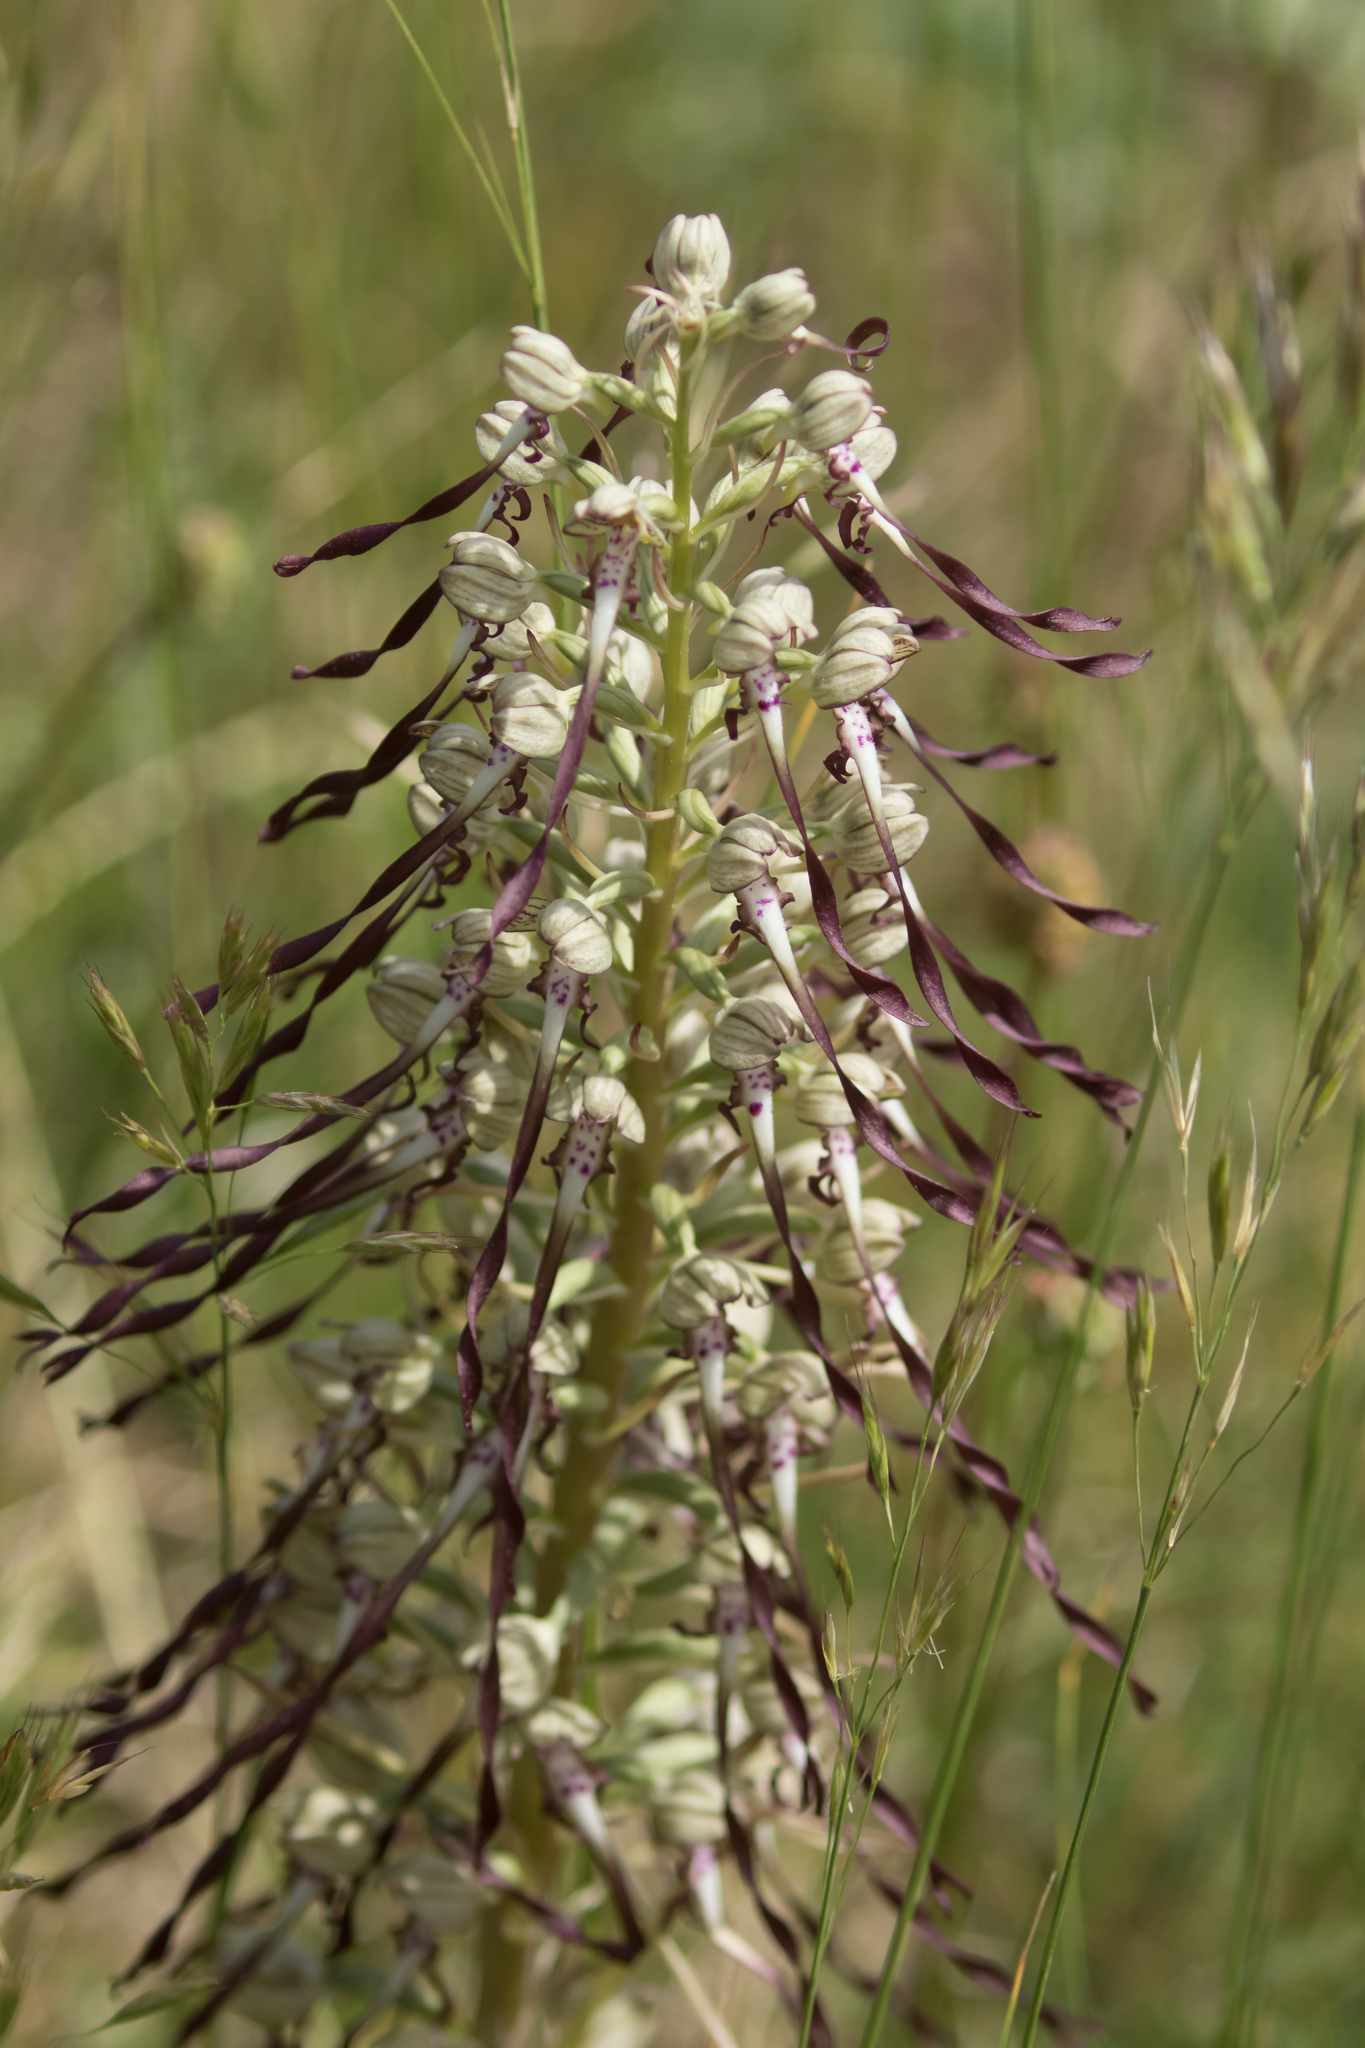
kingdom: Plantae
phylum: Tracheophyta
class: Liliopsida
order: Asparagales
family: Orchidaceae
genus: Himantoglossum
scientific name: Himantoglossum hircinum
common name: Lizard orchid
